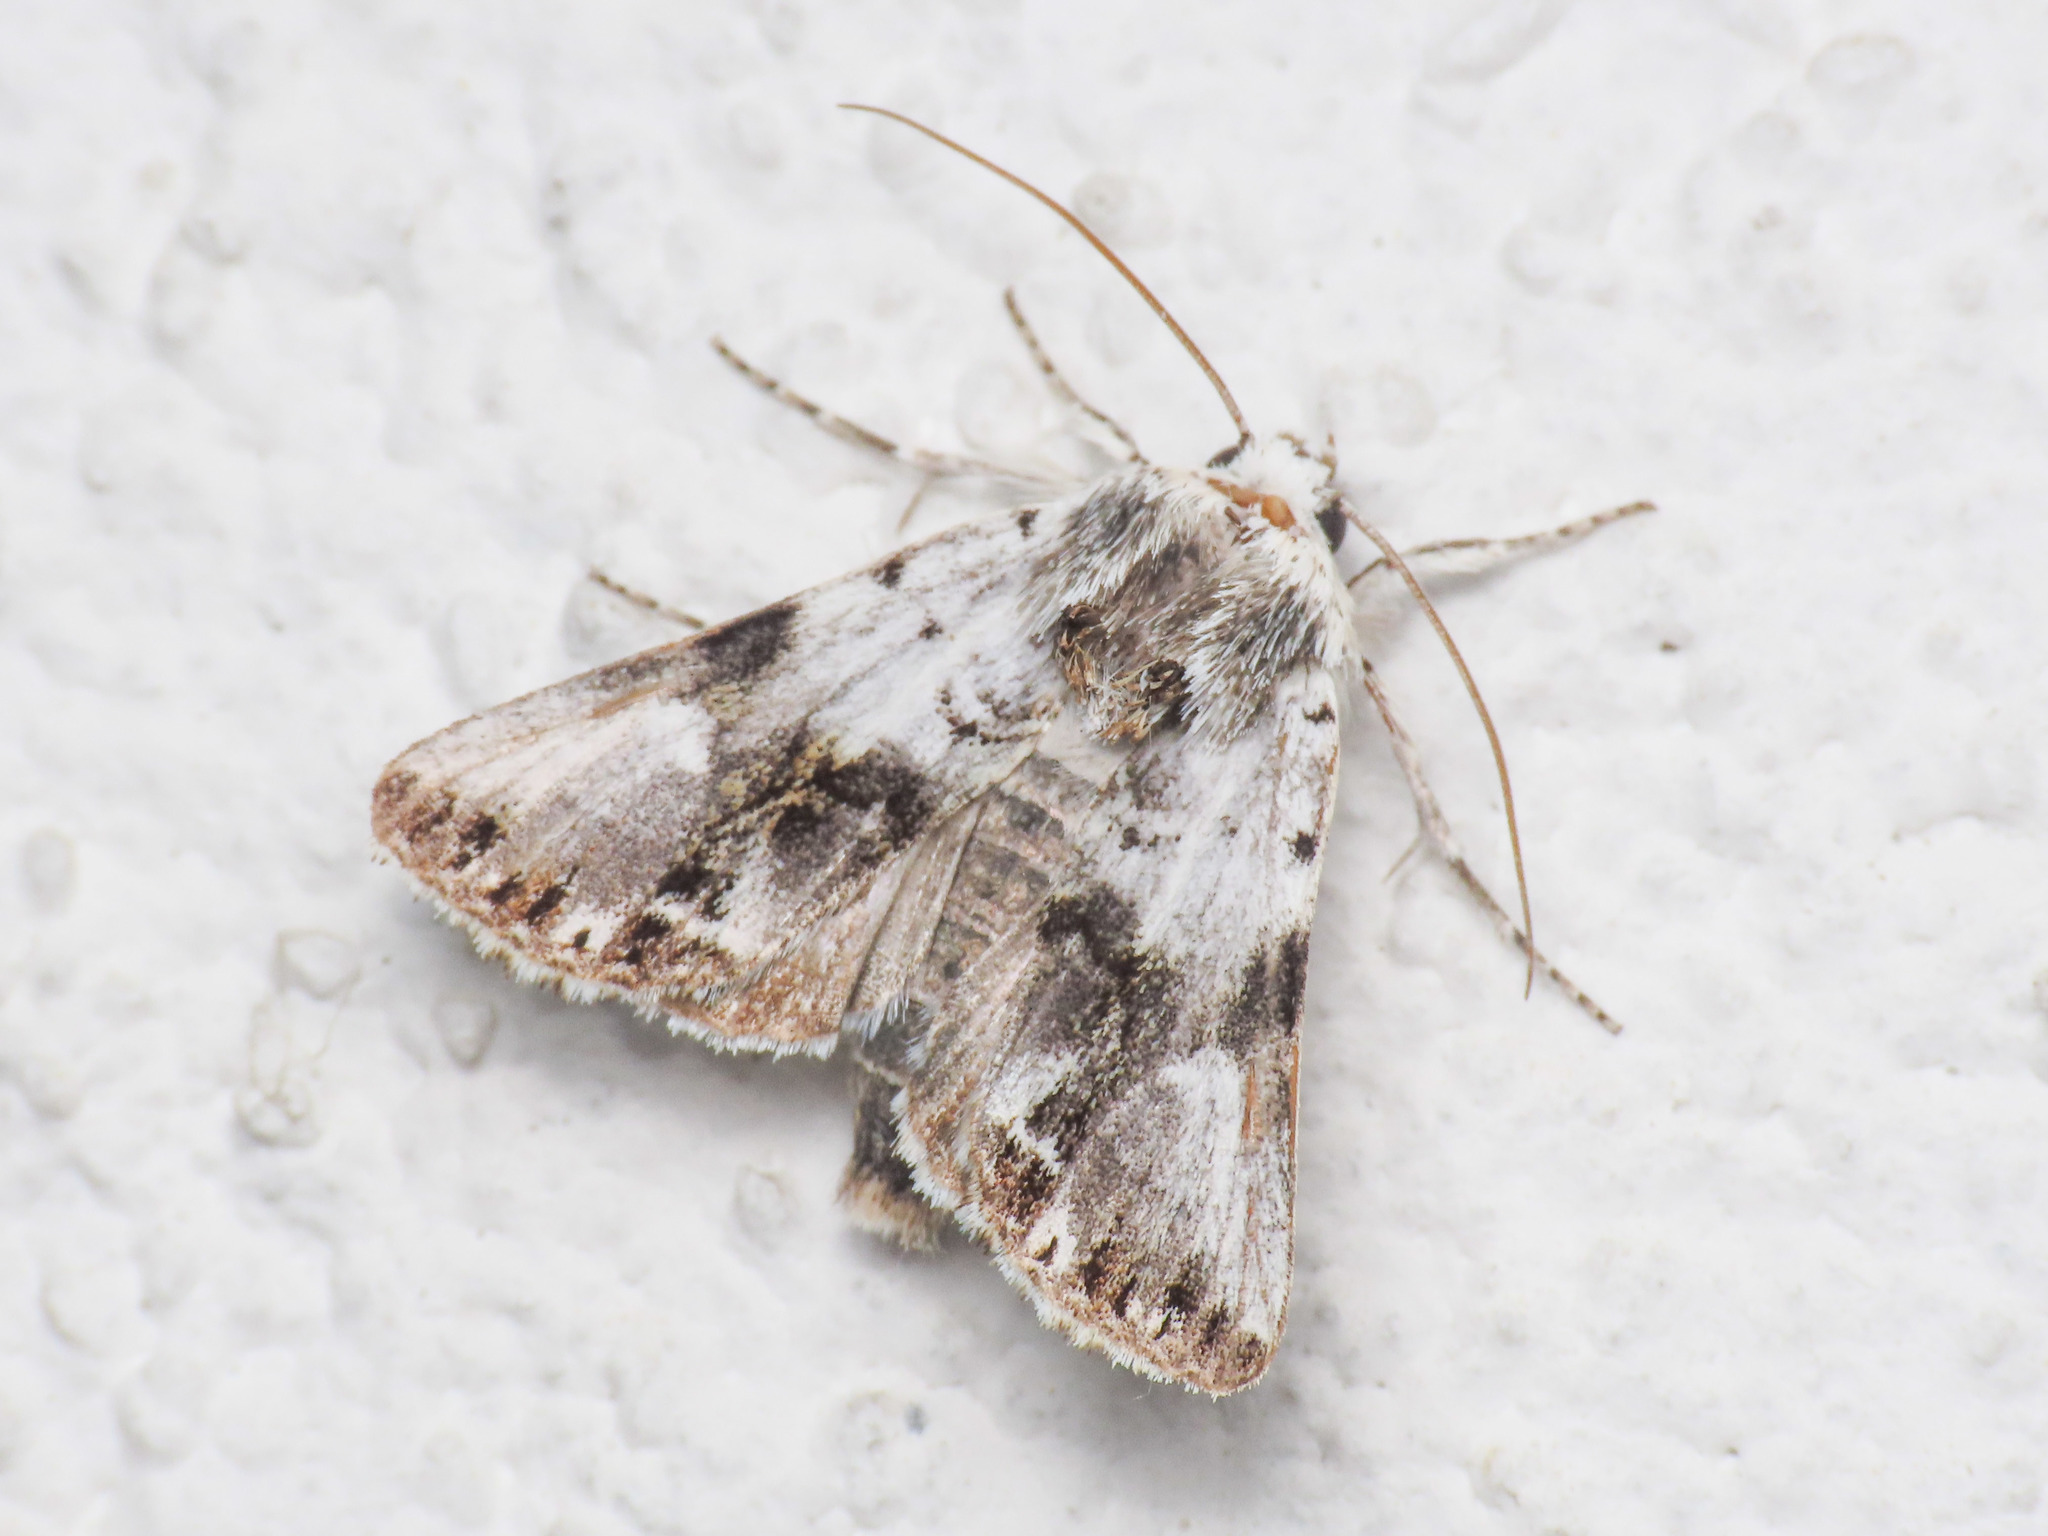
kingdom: Animalia
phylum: Arthropoda
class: Insecta
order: Lepidoptera
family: Noctuidae
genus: Calophasia
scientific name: Calophasia opalina
